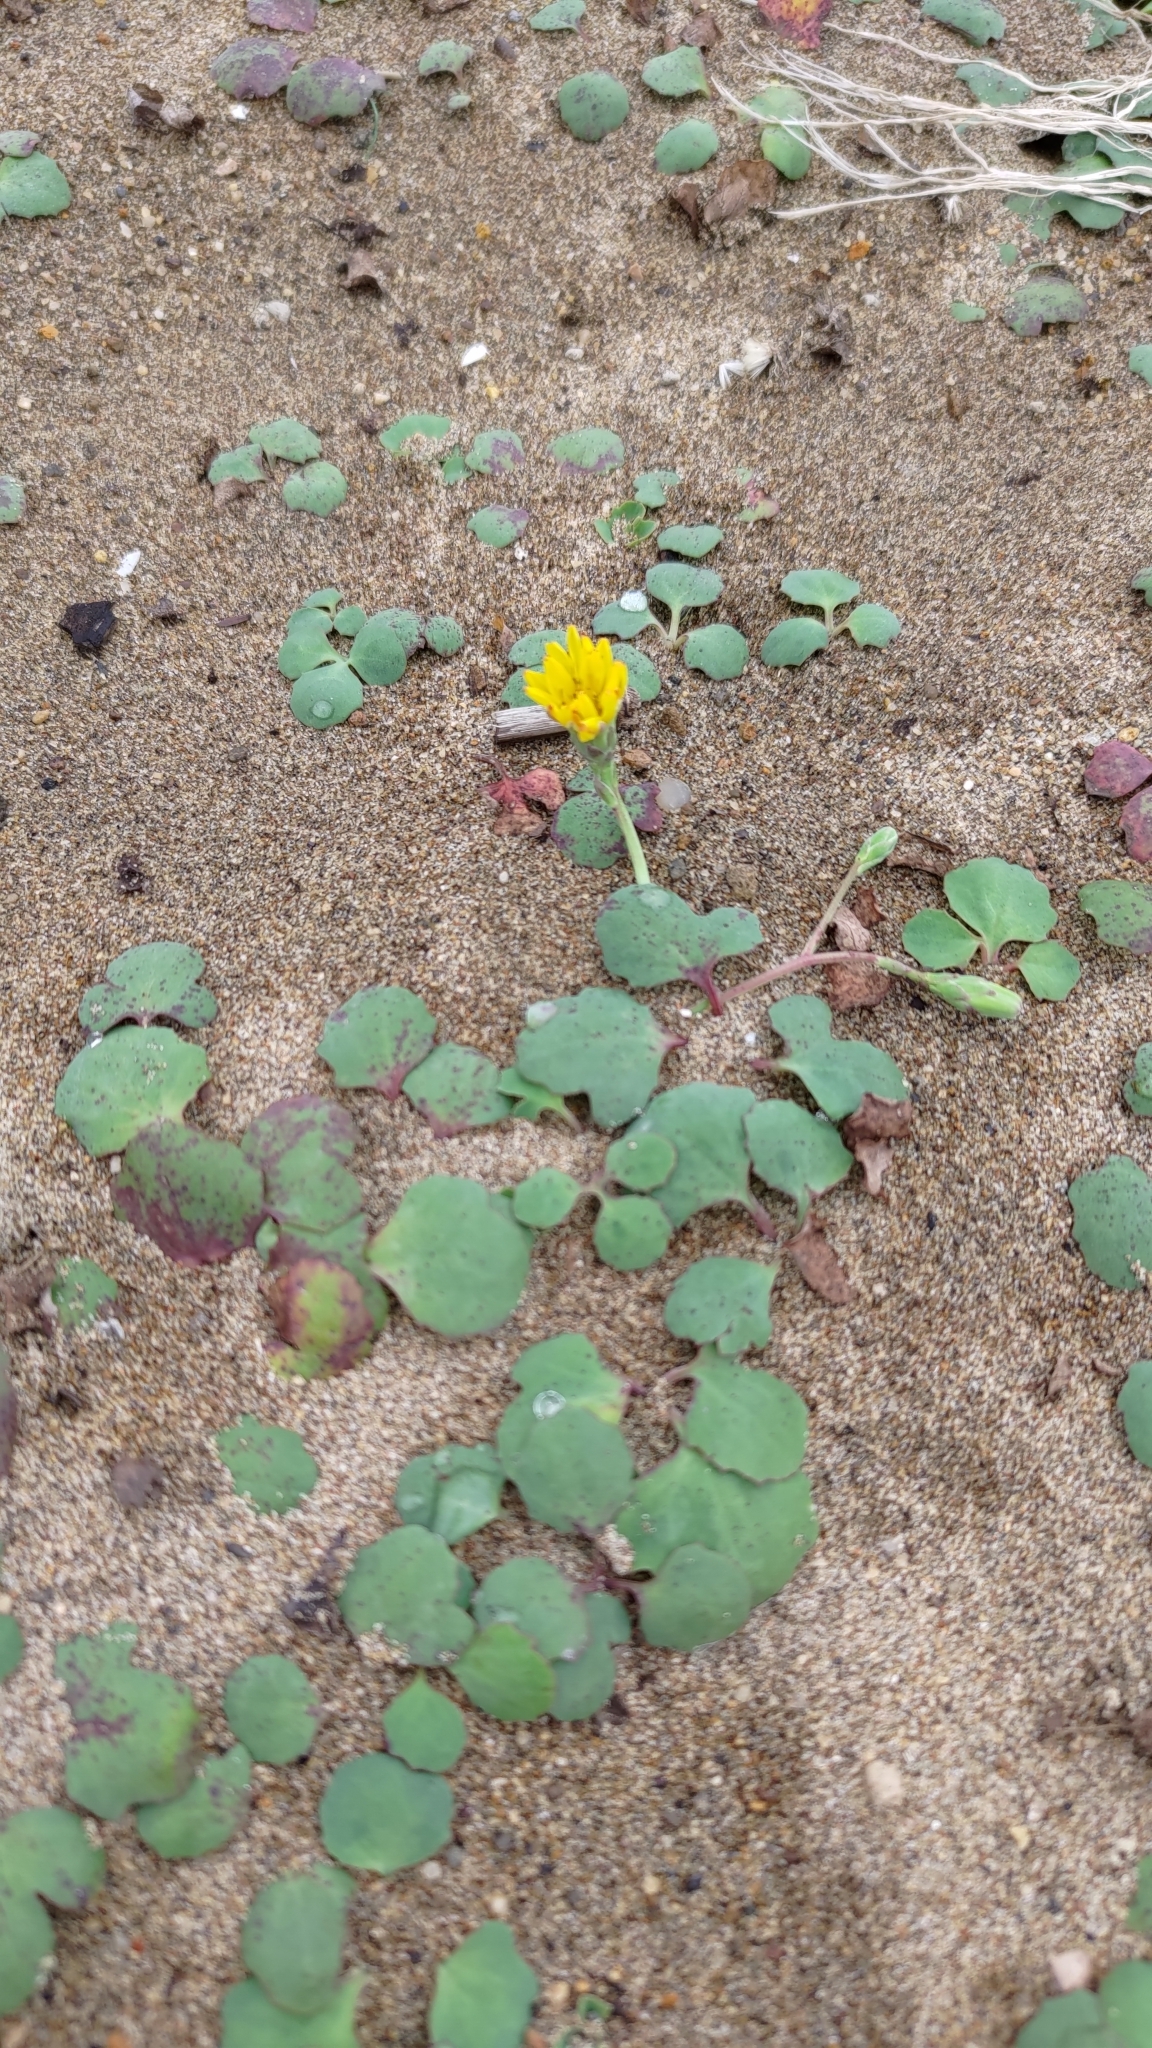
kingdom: Plantae
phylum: Tracheophyta
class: Magnoliopsida
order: Asterales
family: Asteraceae
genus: Ixeris
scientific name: Ixeris repens
